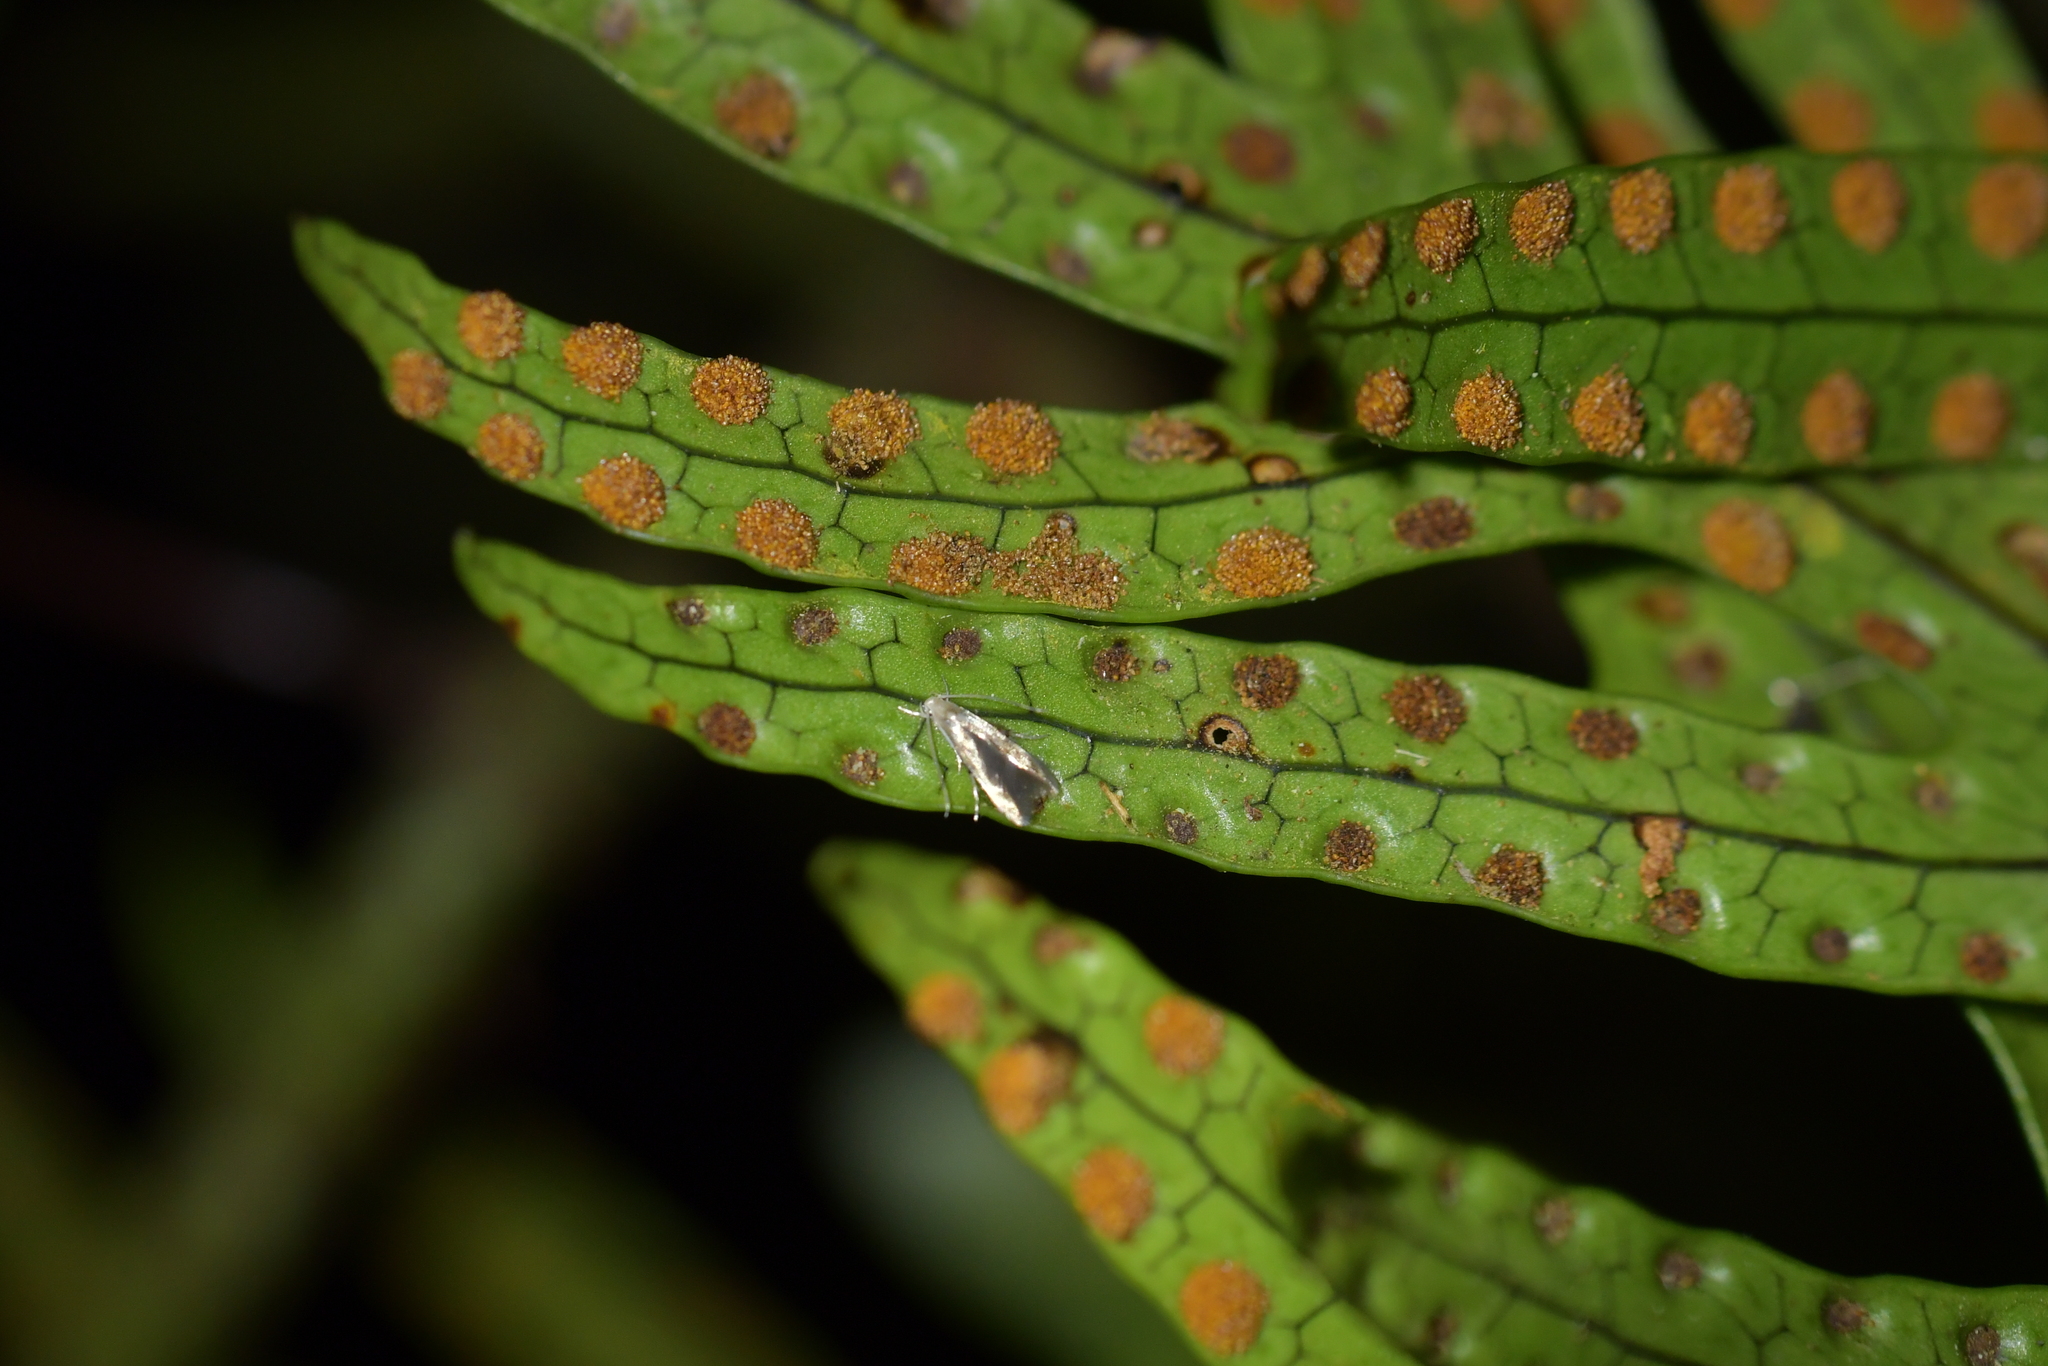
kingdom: Animalia
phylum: Arthropoda
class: Insecta
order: Lepidoptera
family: Stathmopodidae
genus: Thylacosceles
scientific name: Thylacosceles radians
